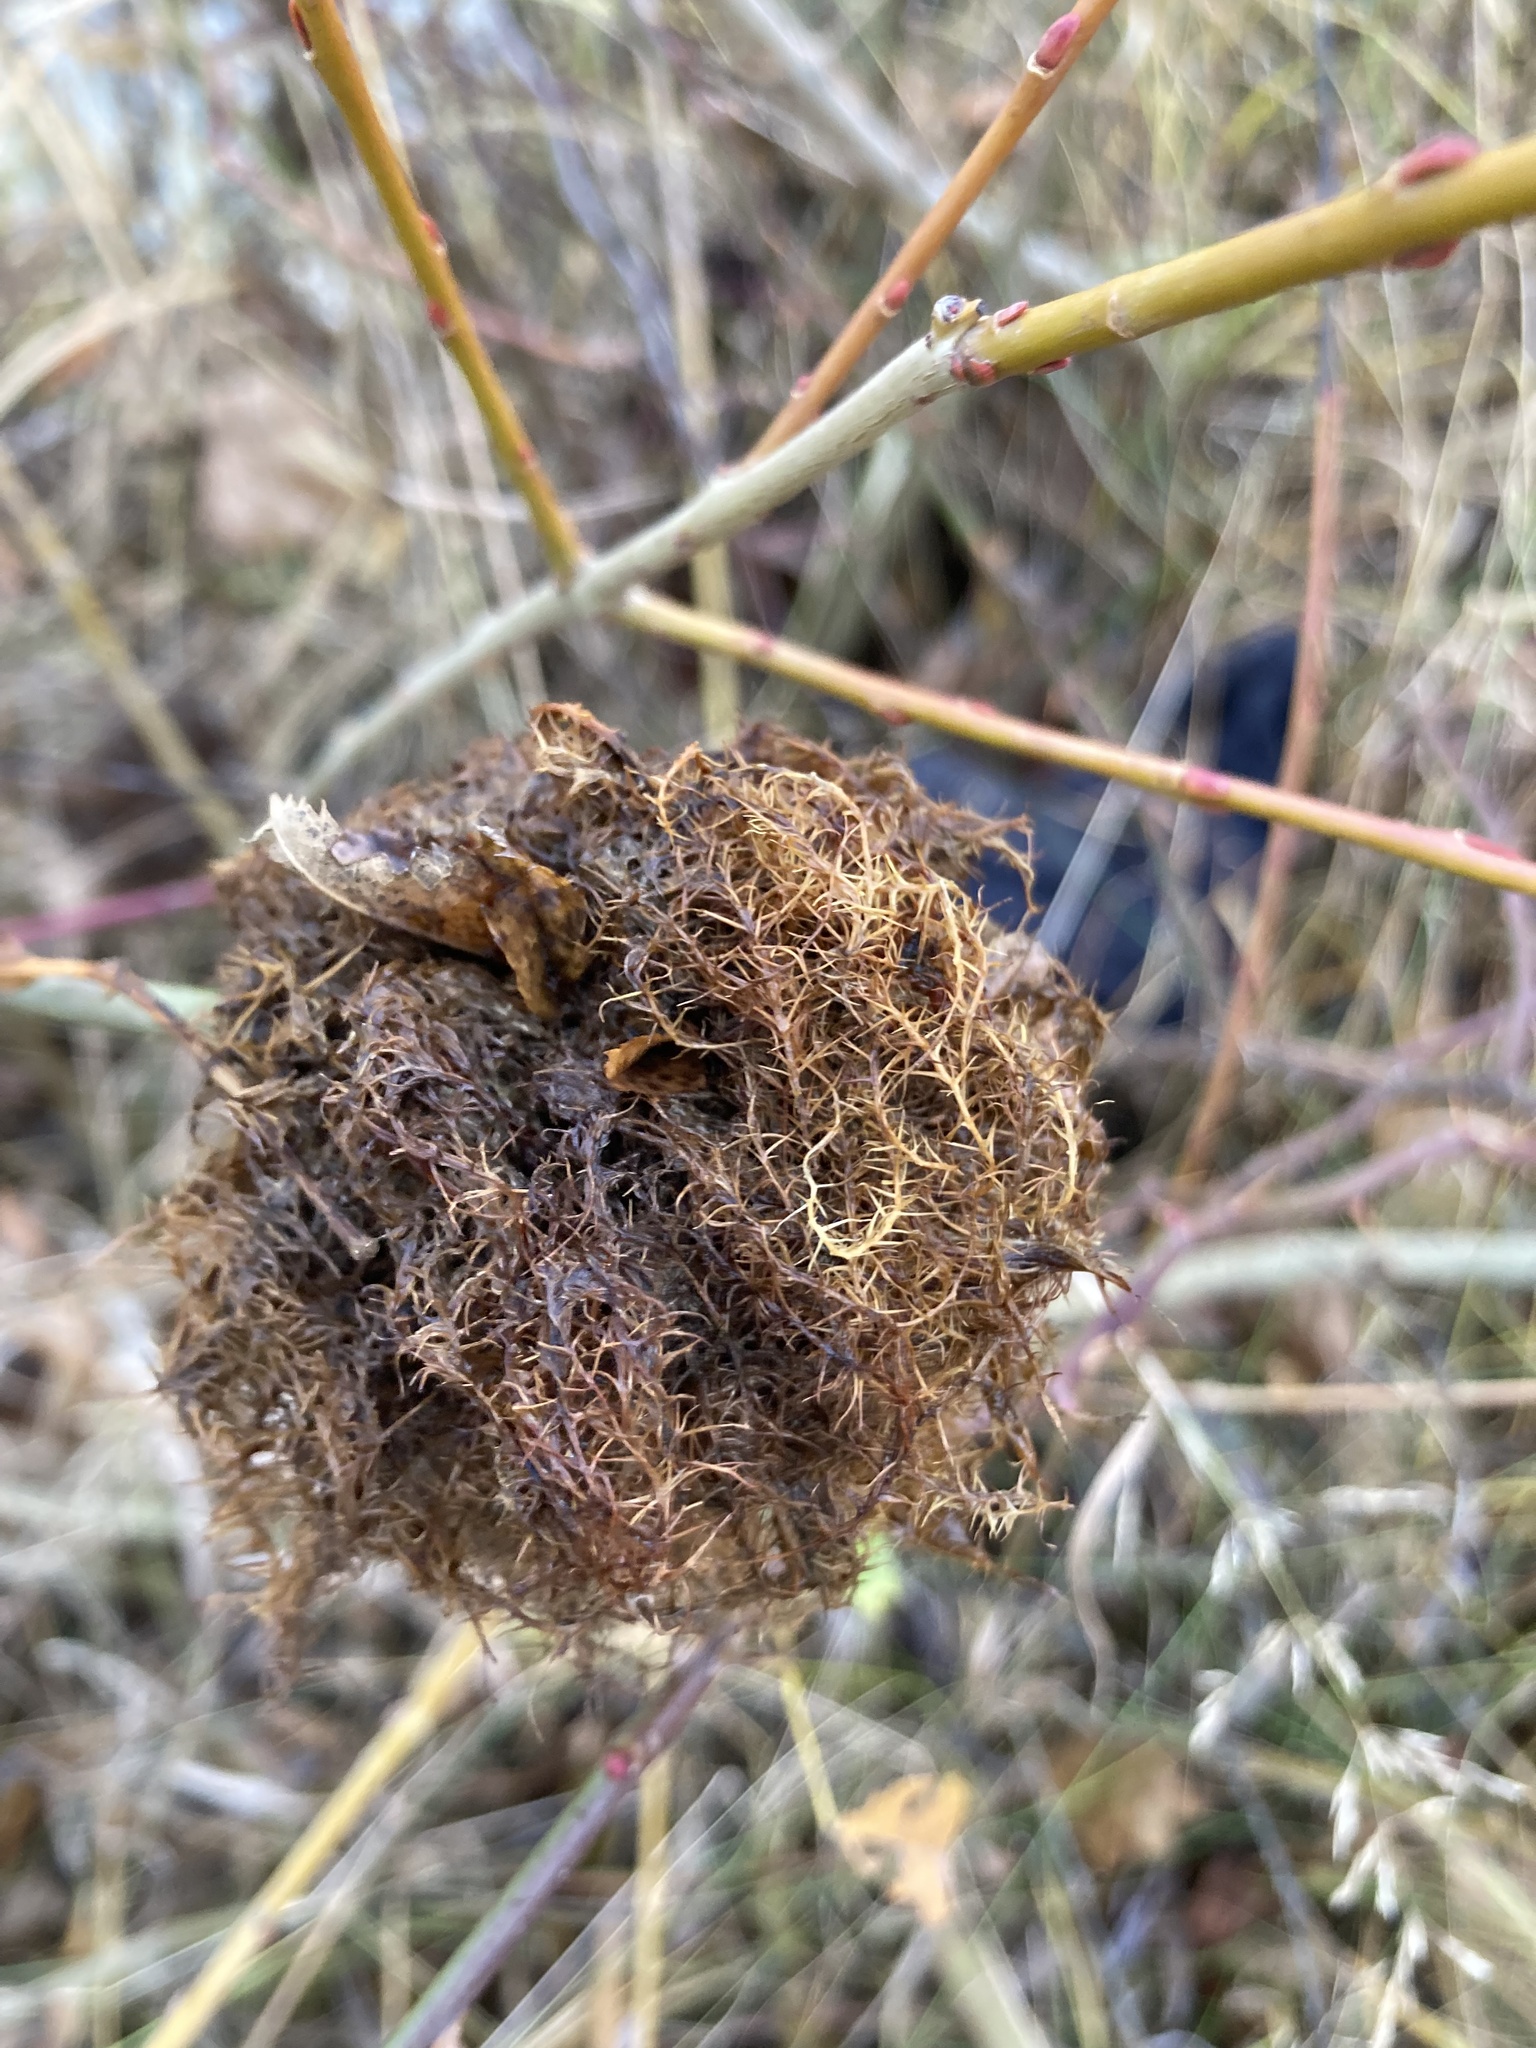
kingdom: Animalia
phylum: Arthropoda
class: Insecta
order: Hymenoptera
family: Cynipidae
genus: Diplolepis
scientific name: Diplolepis rosae
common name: Bedeguar gall
